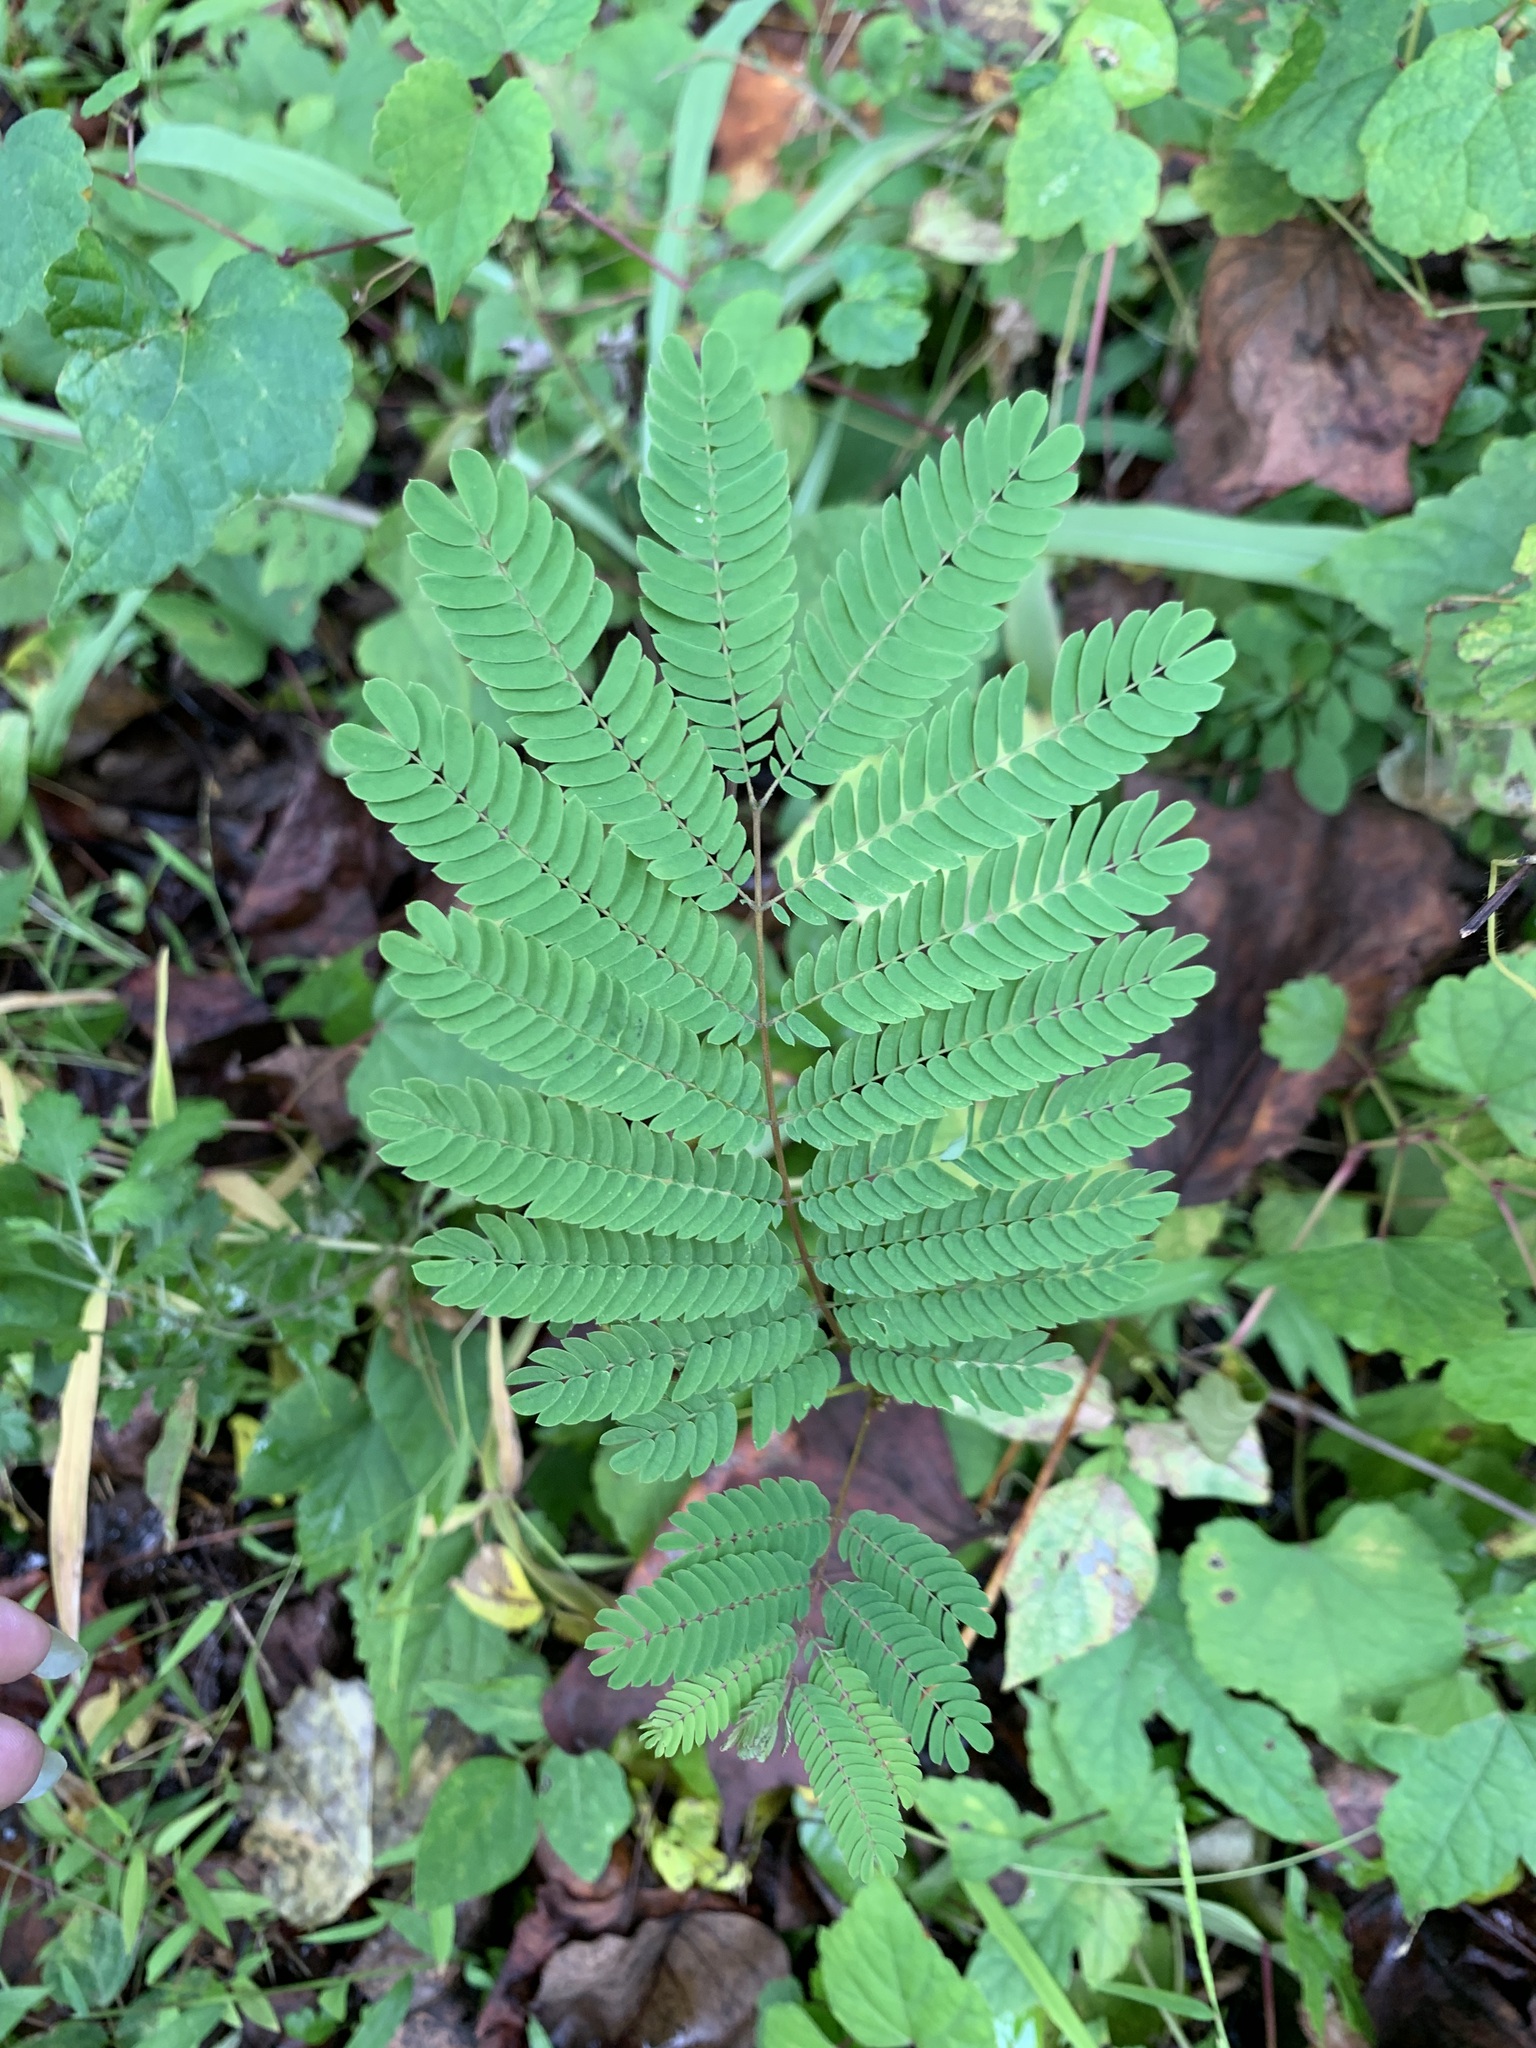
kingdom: Plantae
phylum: Tracheophyta
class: Magnoliopsida
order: Fabales
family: Fabaceae
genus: Albizia
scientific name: Albizia julibrissin
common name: Silktree
